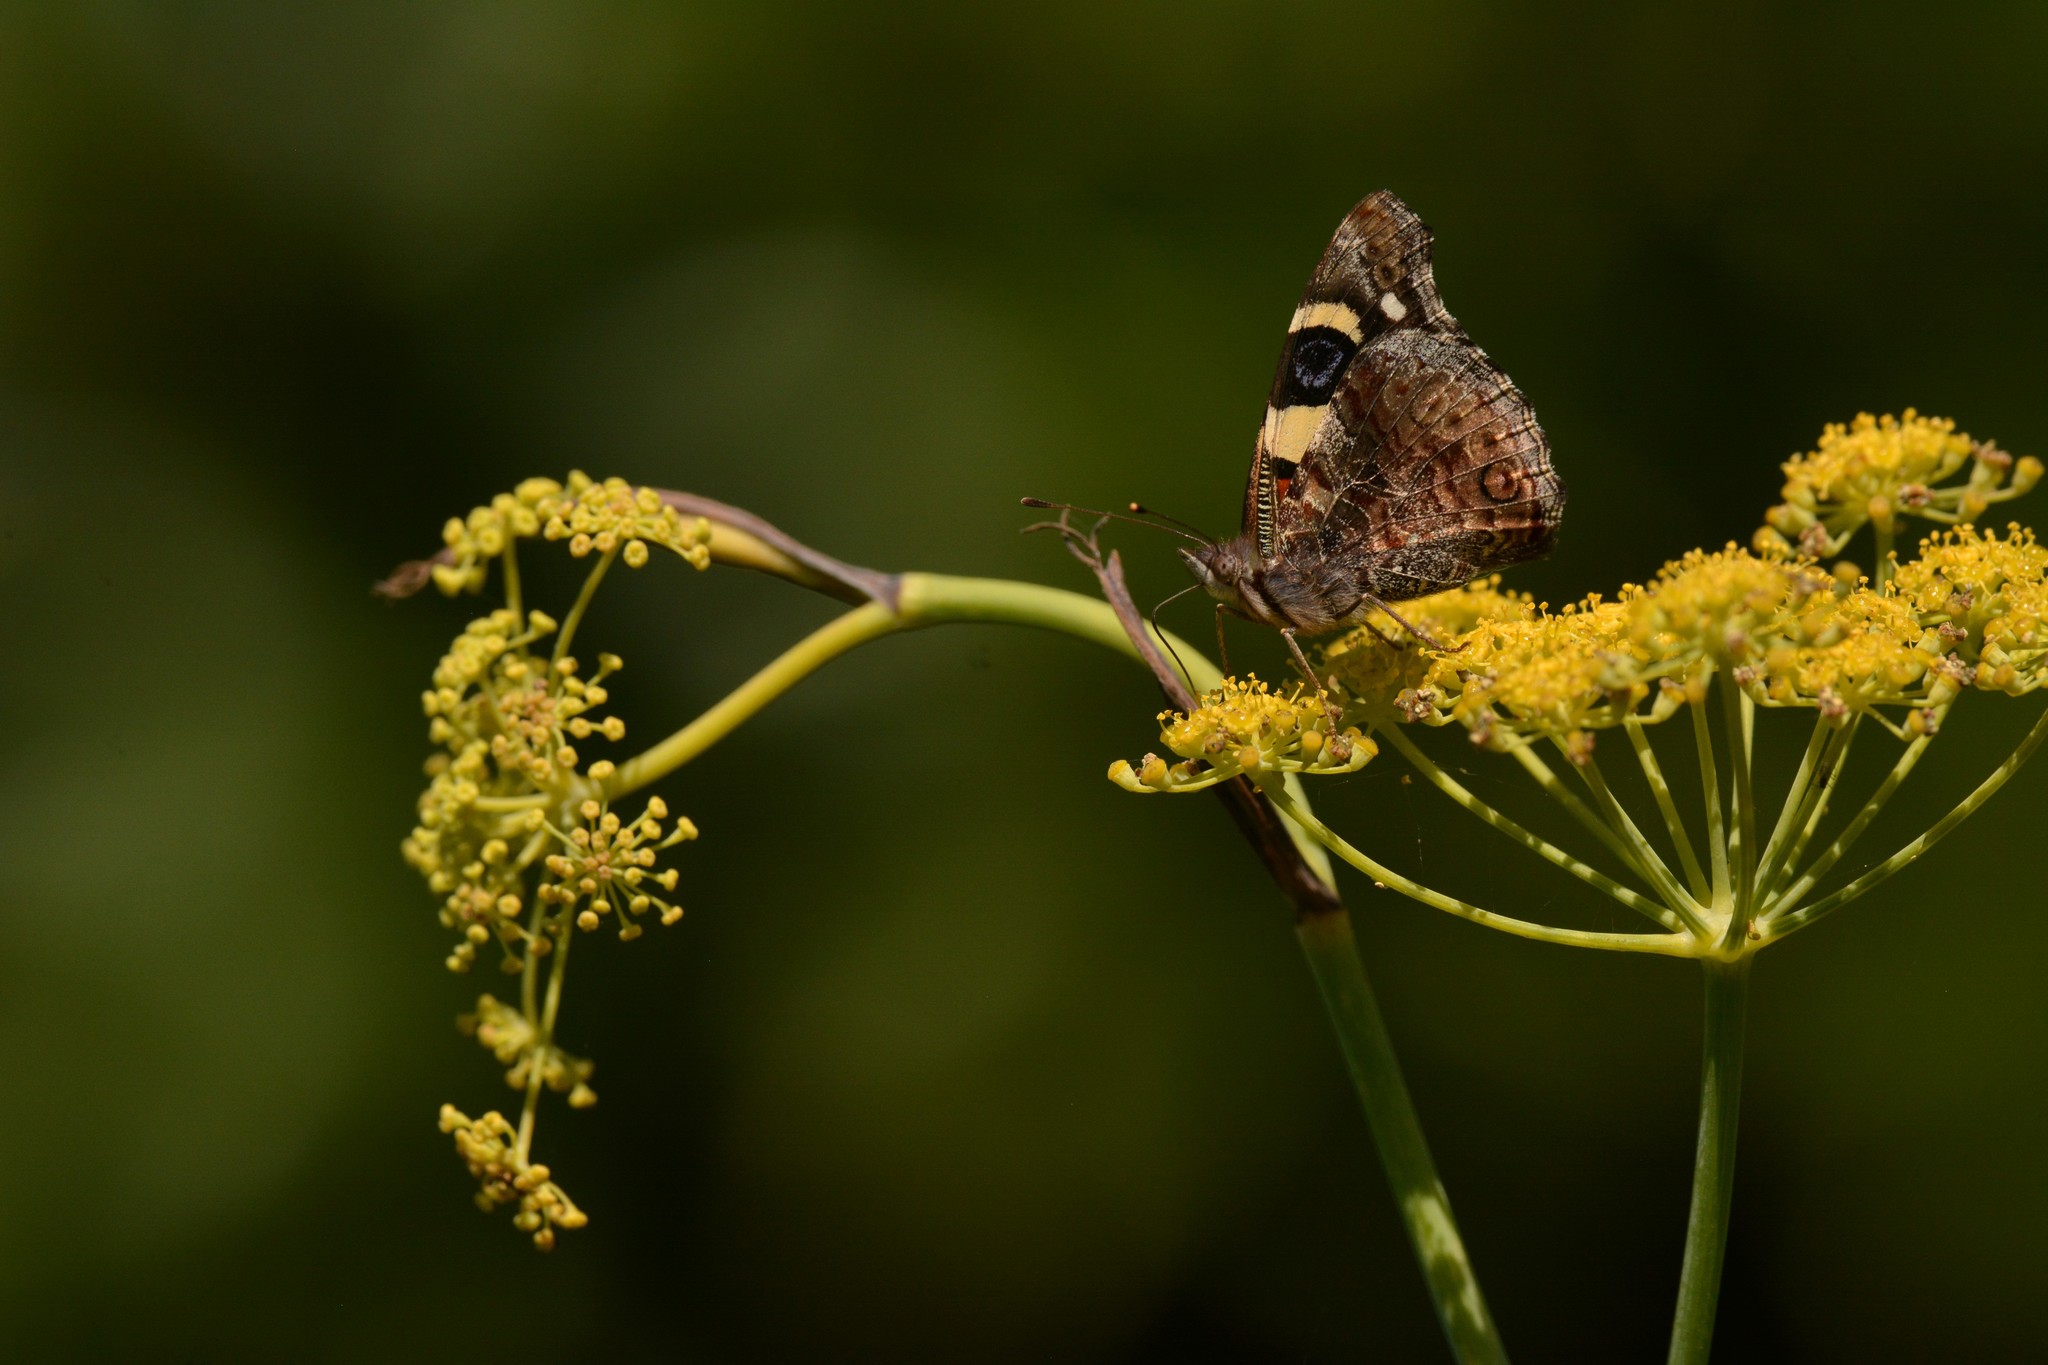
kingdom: Animalia
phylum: Arthropoda
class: Insecta
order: Lepidoptera
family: Nymphalidae
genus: Vanessa
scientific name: Vanessa itea
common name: Yellow admiral
